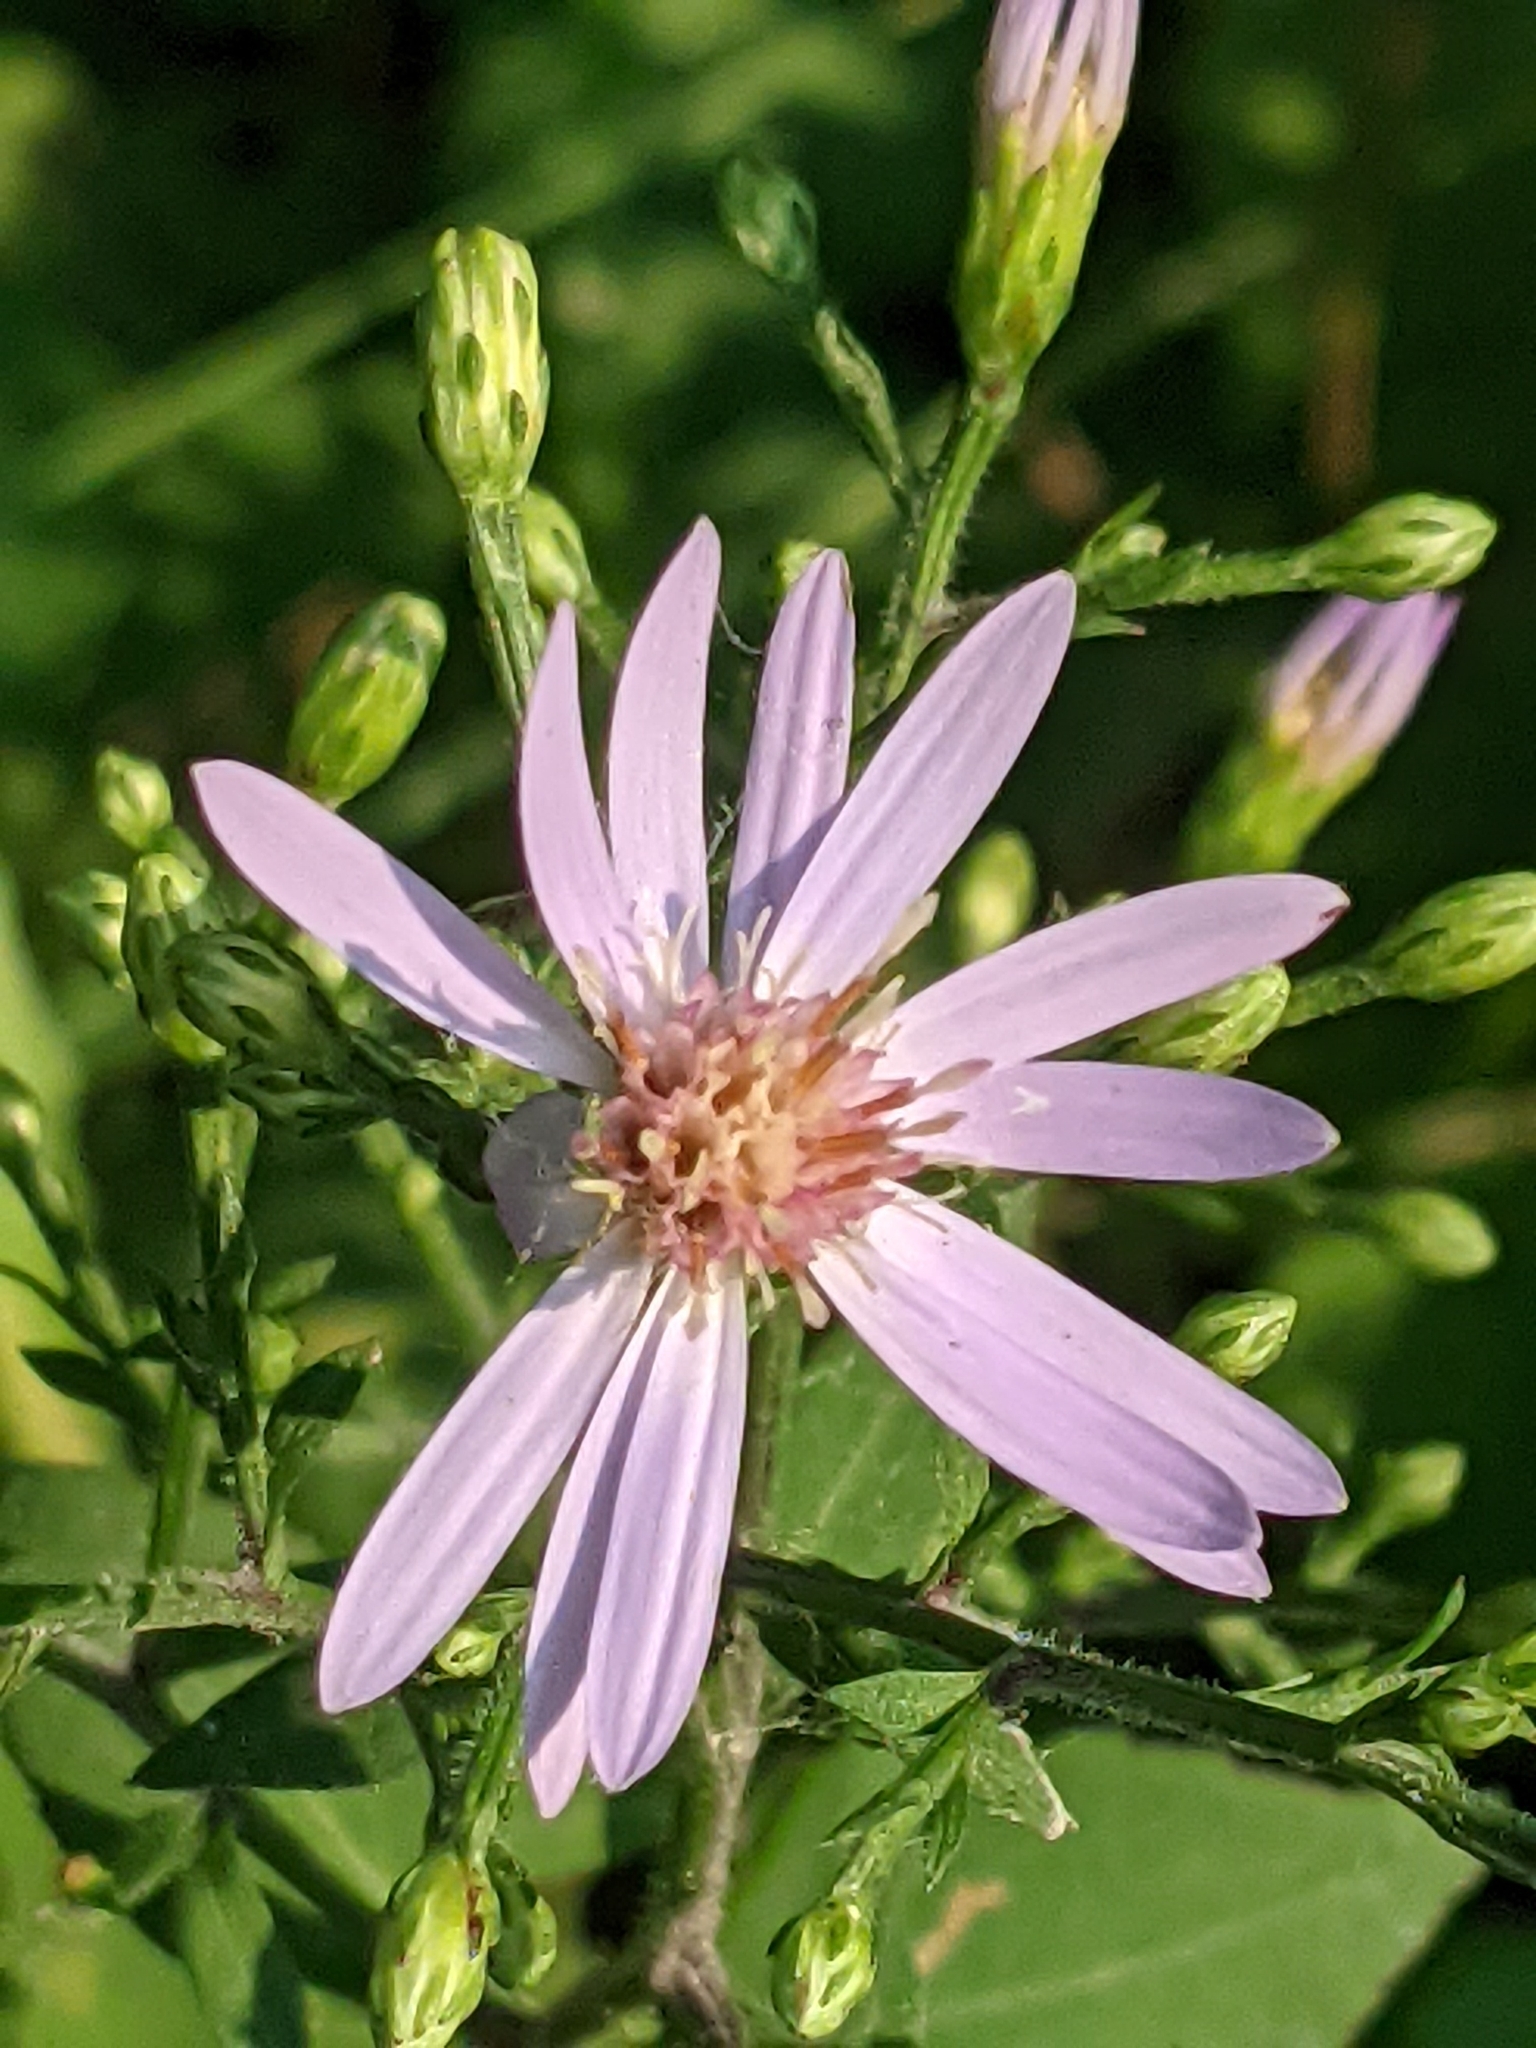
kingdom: Plantae
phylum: Tracheophyta
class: Magnoliopsida
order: Asterales
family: Asteraceae
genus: Symphyotrichum
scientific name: Symphyotrichum cordifolium
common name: Beeweed
